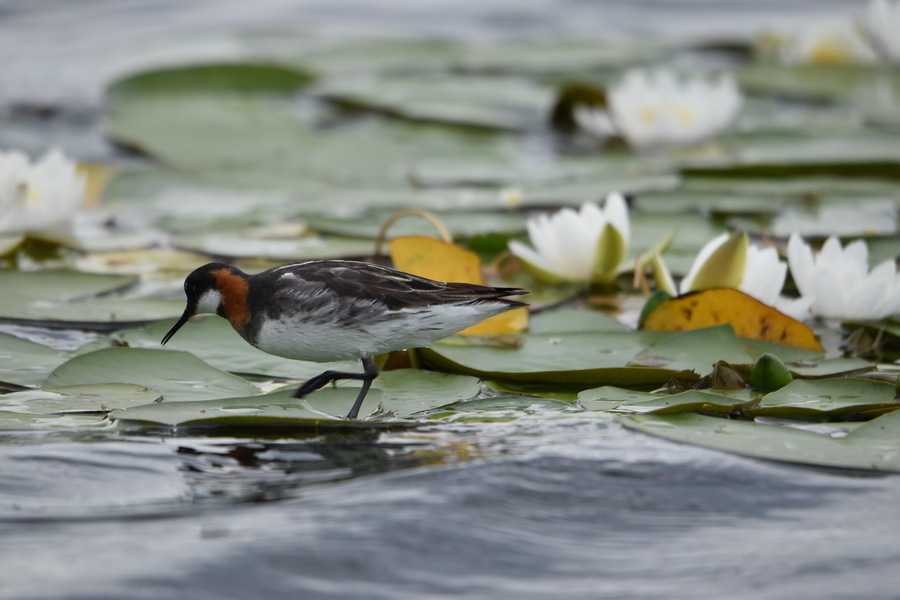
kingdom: Animalia
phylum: Chordata
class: Aves
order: Charadriiformes
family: Scolopacidae
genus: Phalaropus
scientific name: Phalaropus lobatus
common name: Red-necked phalarope
